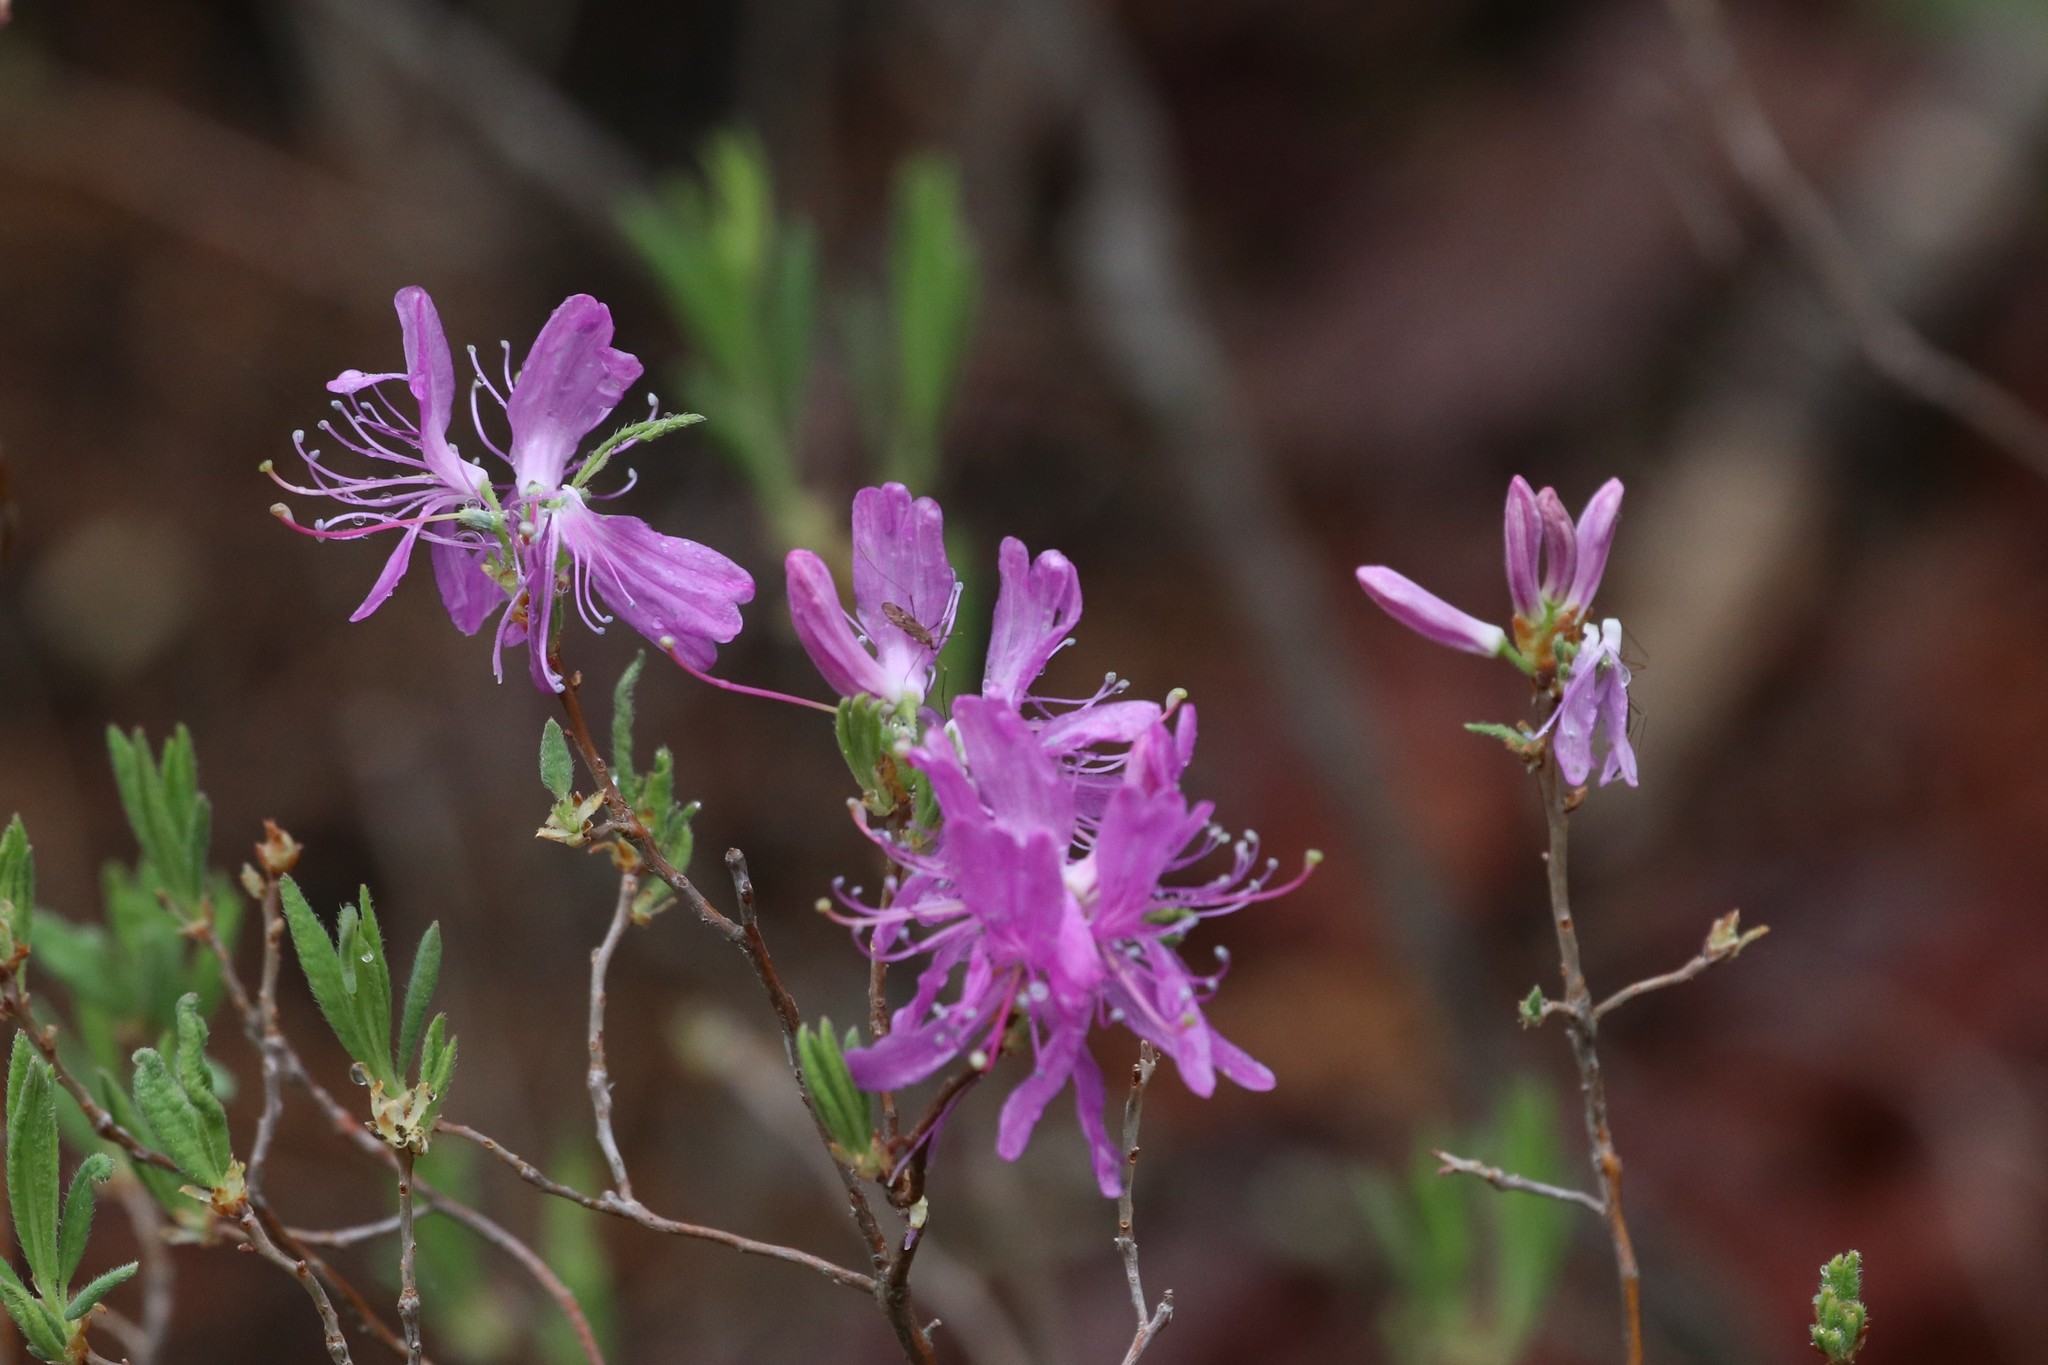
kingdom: Plantae
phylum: Tracheophyta
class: Magnoliopsida
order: Ericales
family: Ericaceae
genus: Rhododendron
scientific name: Rhododendron canadense
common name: Rhodora
